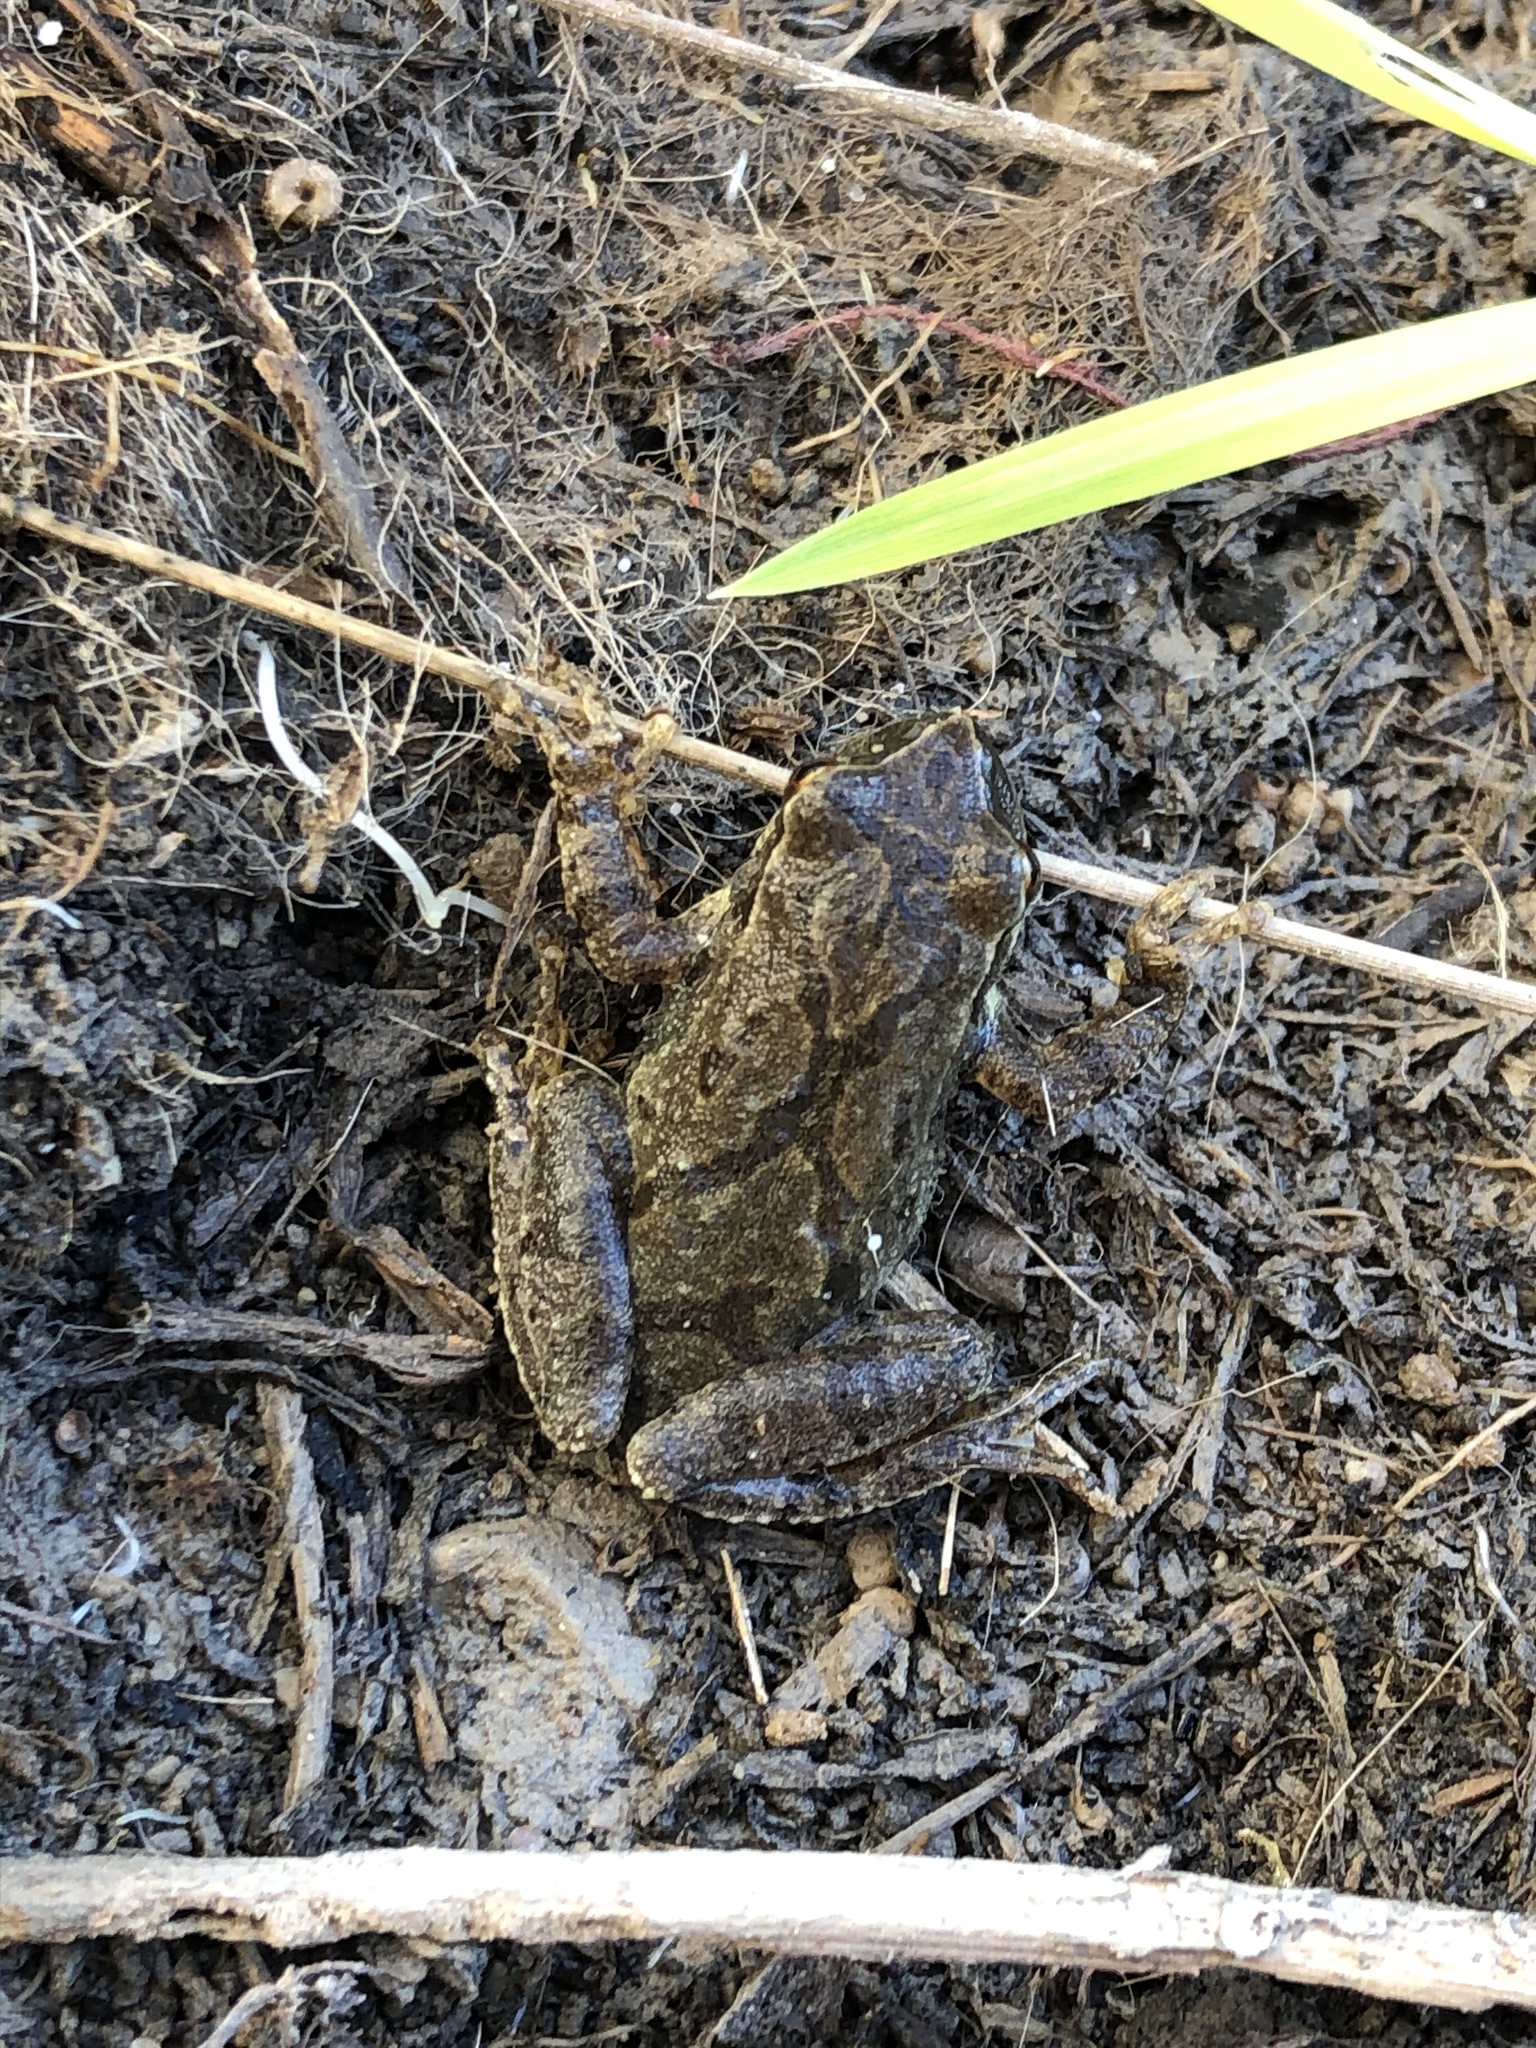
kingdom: Animalia
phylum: Chordata
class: Amphibia
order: Anura
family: Hylidae
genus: Pseudacris
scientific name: Pseudacris crucifer
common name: Spring peeper
